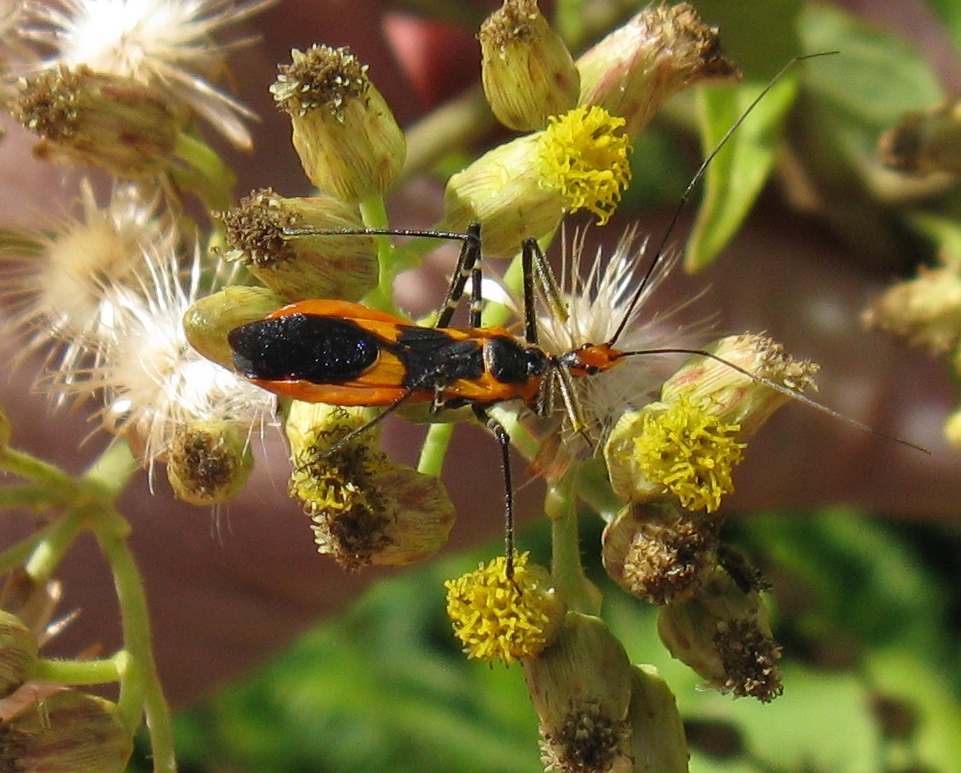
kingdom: Animalia
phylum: Arthropoda
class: Insecta
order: Hemiptera
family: Reduviidae
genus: Zelus
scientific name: Zelus longipes
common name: Milkweed assassin bug
